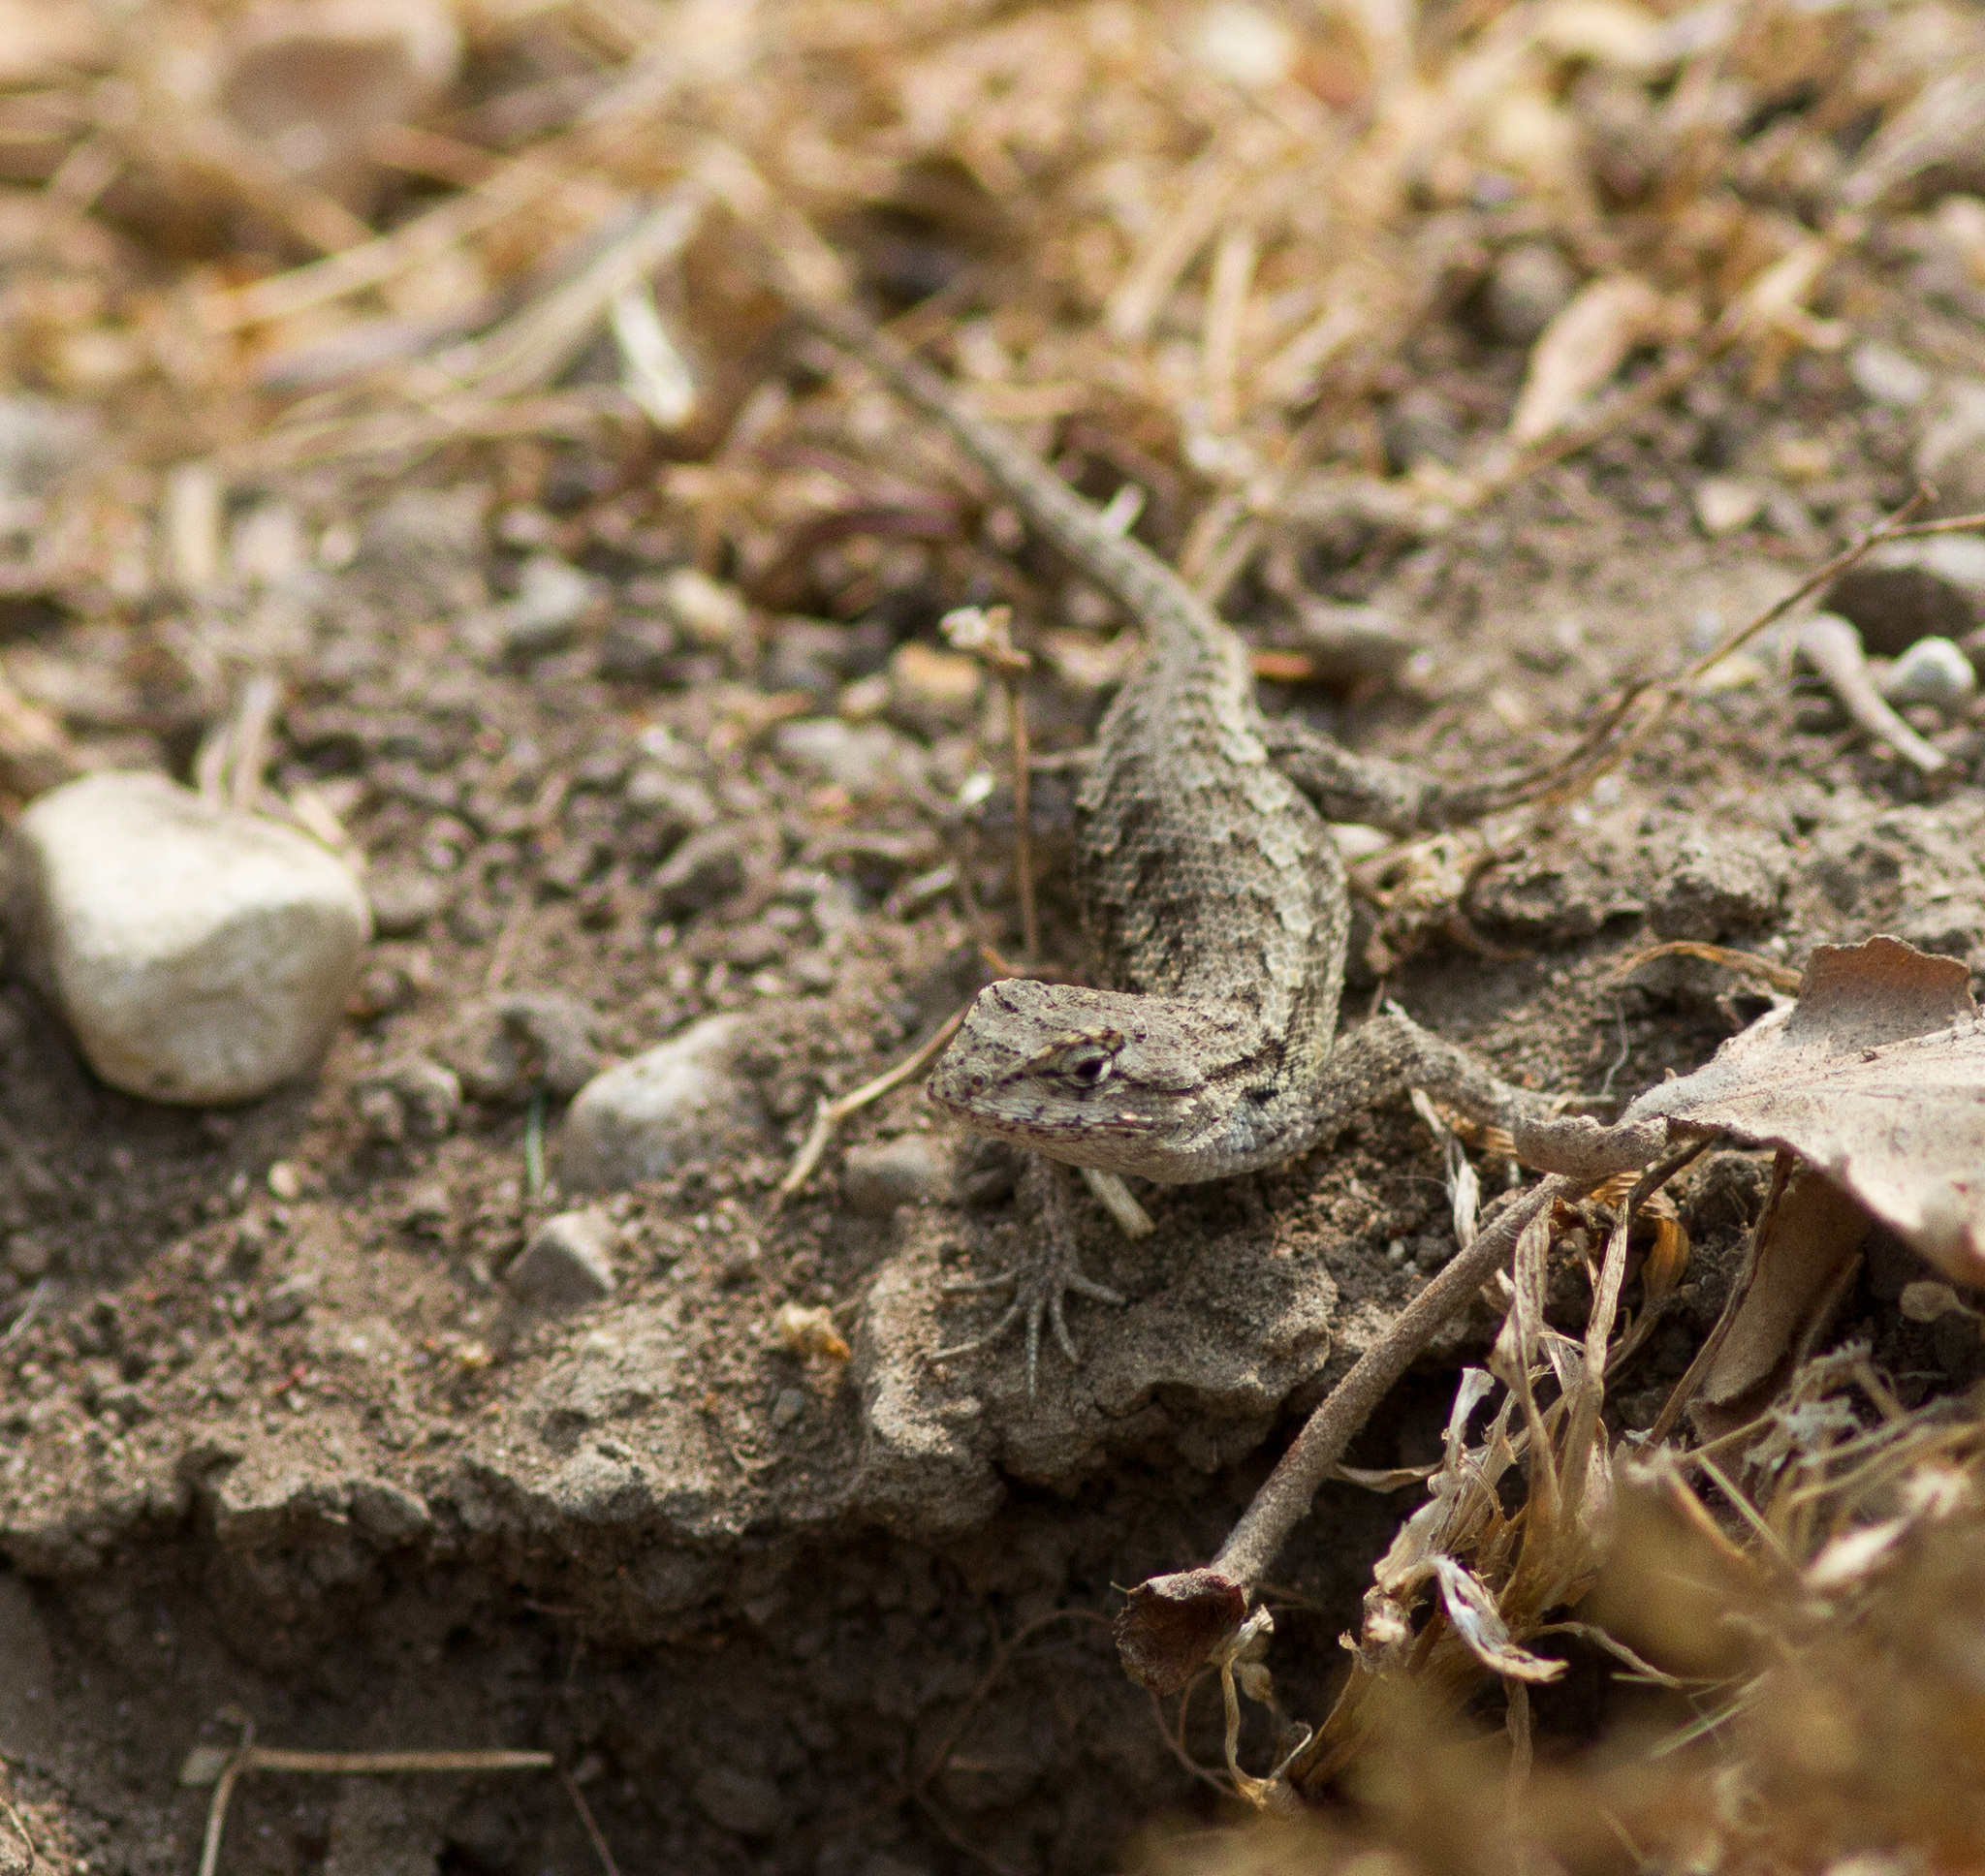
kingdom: Animalia
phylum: Chordata
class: Squamata
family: Phrynosomatidae
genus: Sceloporus
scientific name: Sceloporus occidentalis
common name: Western fence lizard
